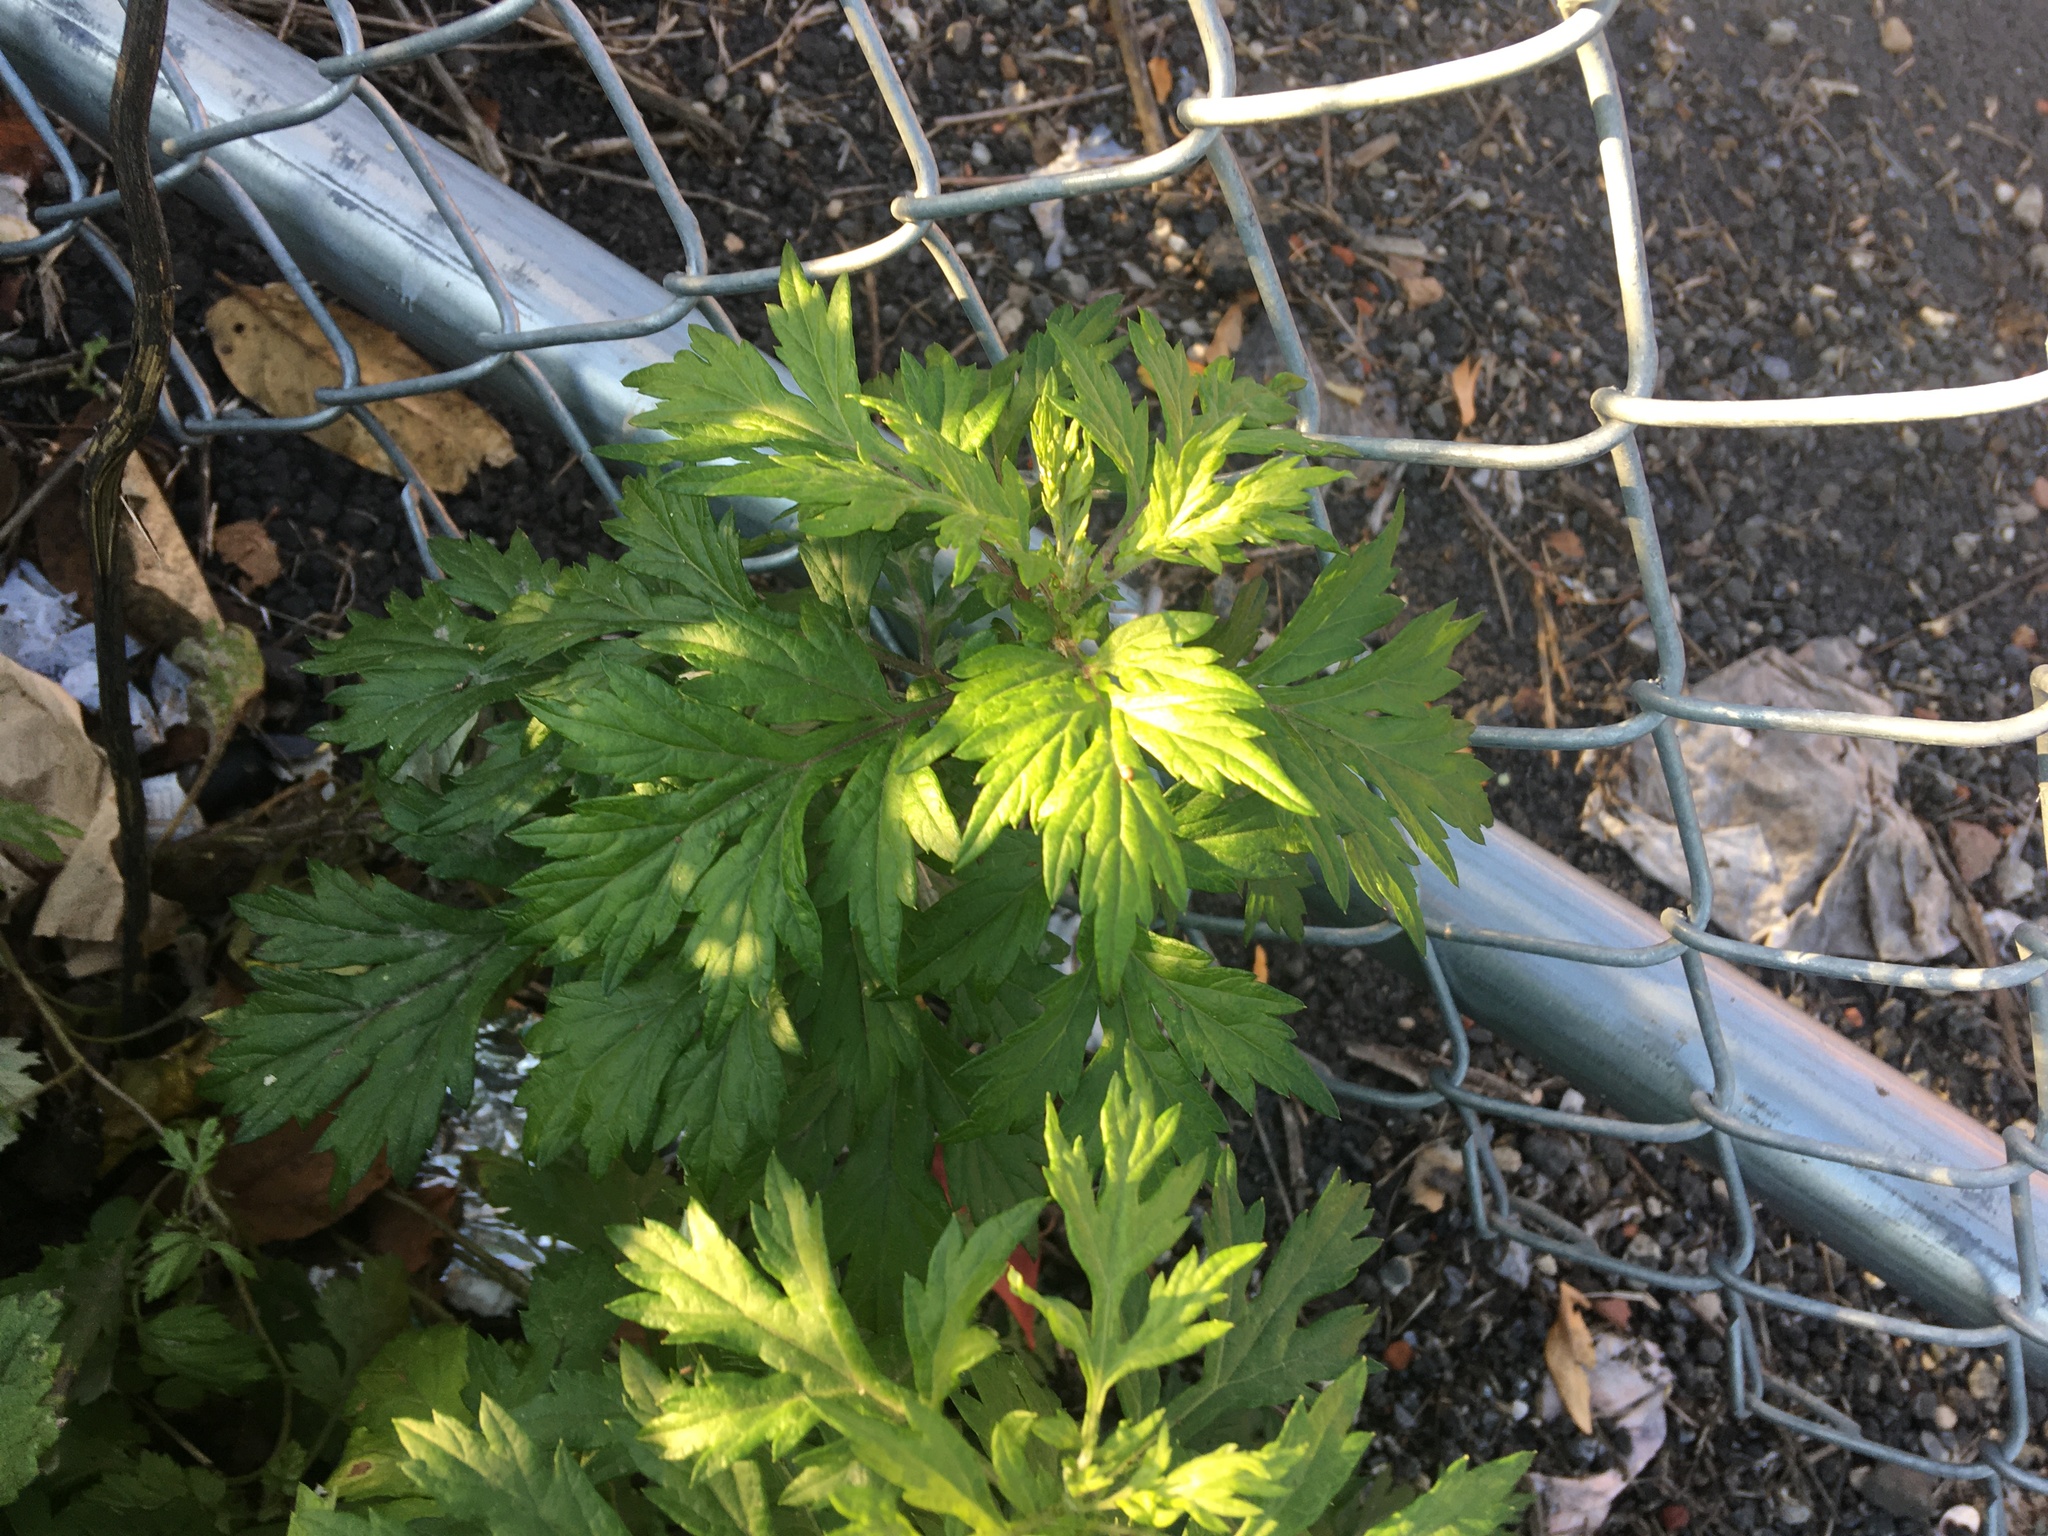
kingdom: Plantae
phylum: Tracheophyta
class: Magnoliopsida
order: Asterales
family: Asteraceae
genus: Artemisia
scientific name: Artemisia vulgaris
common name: Mugwort
